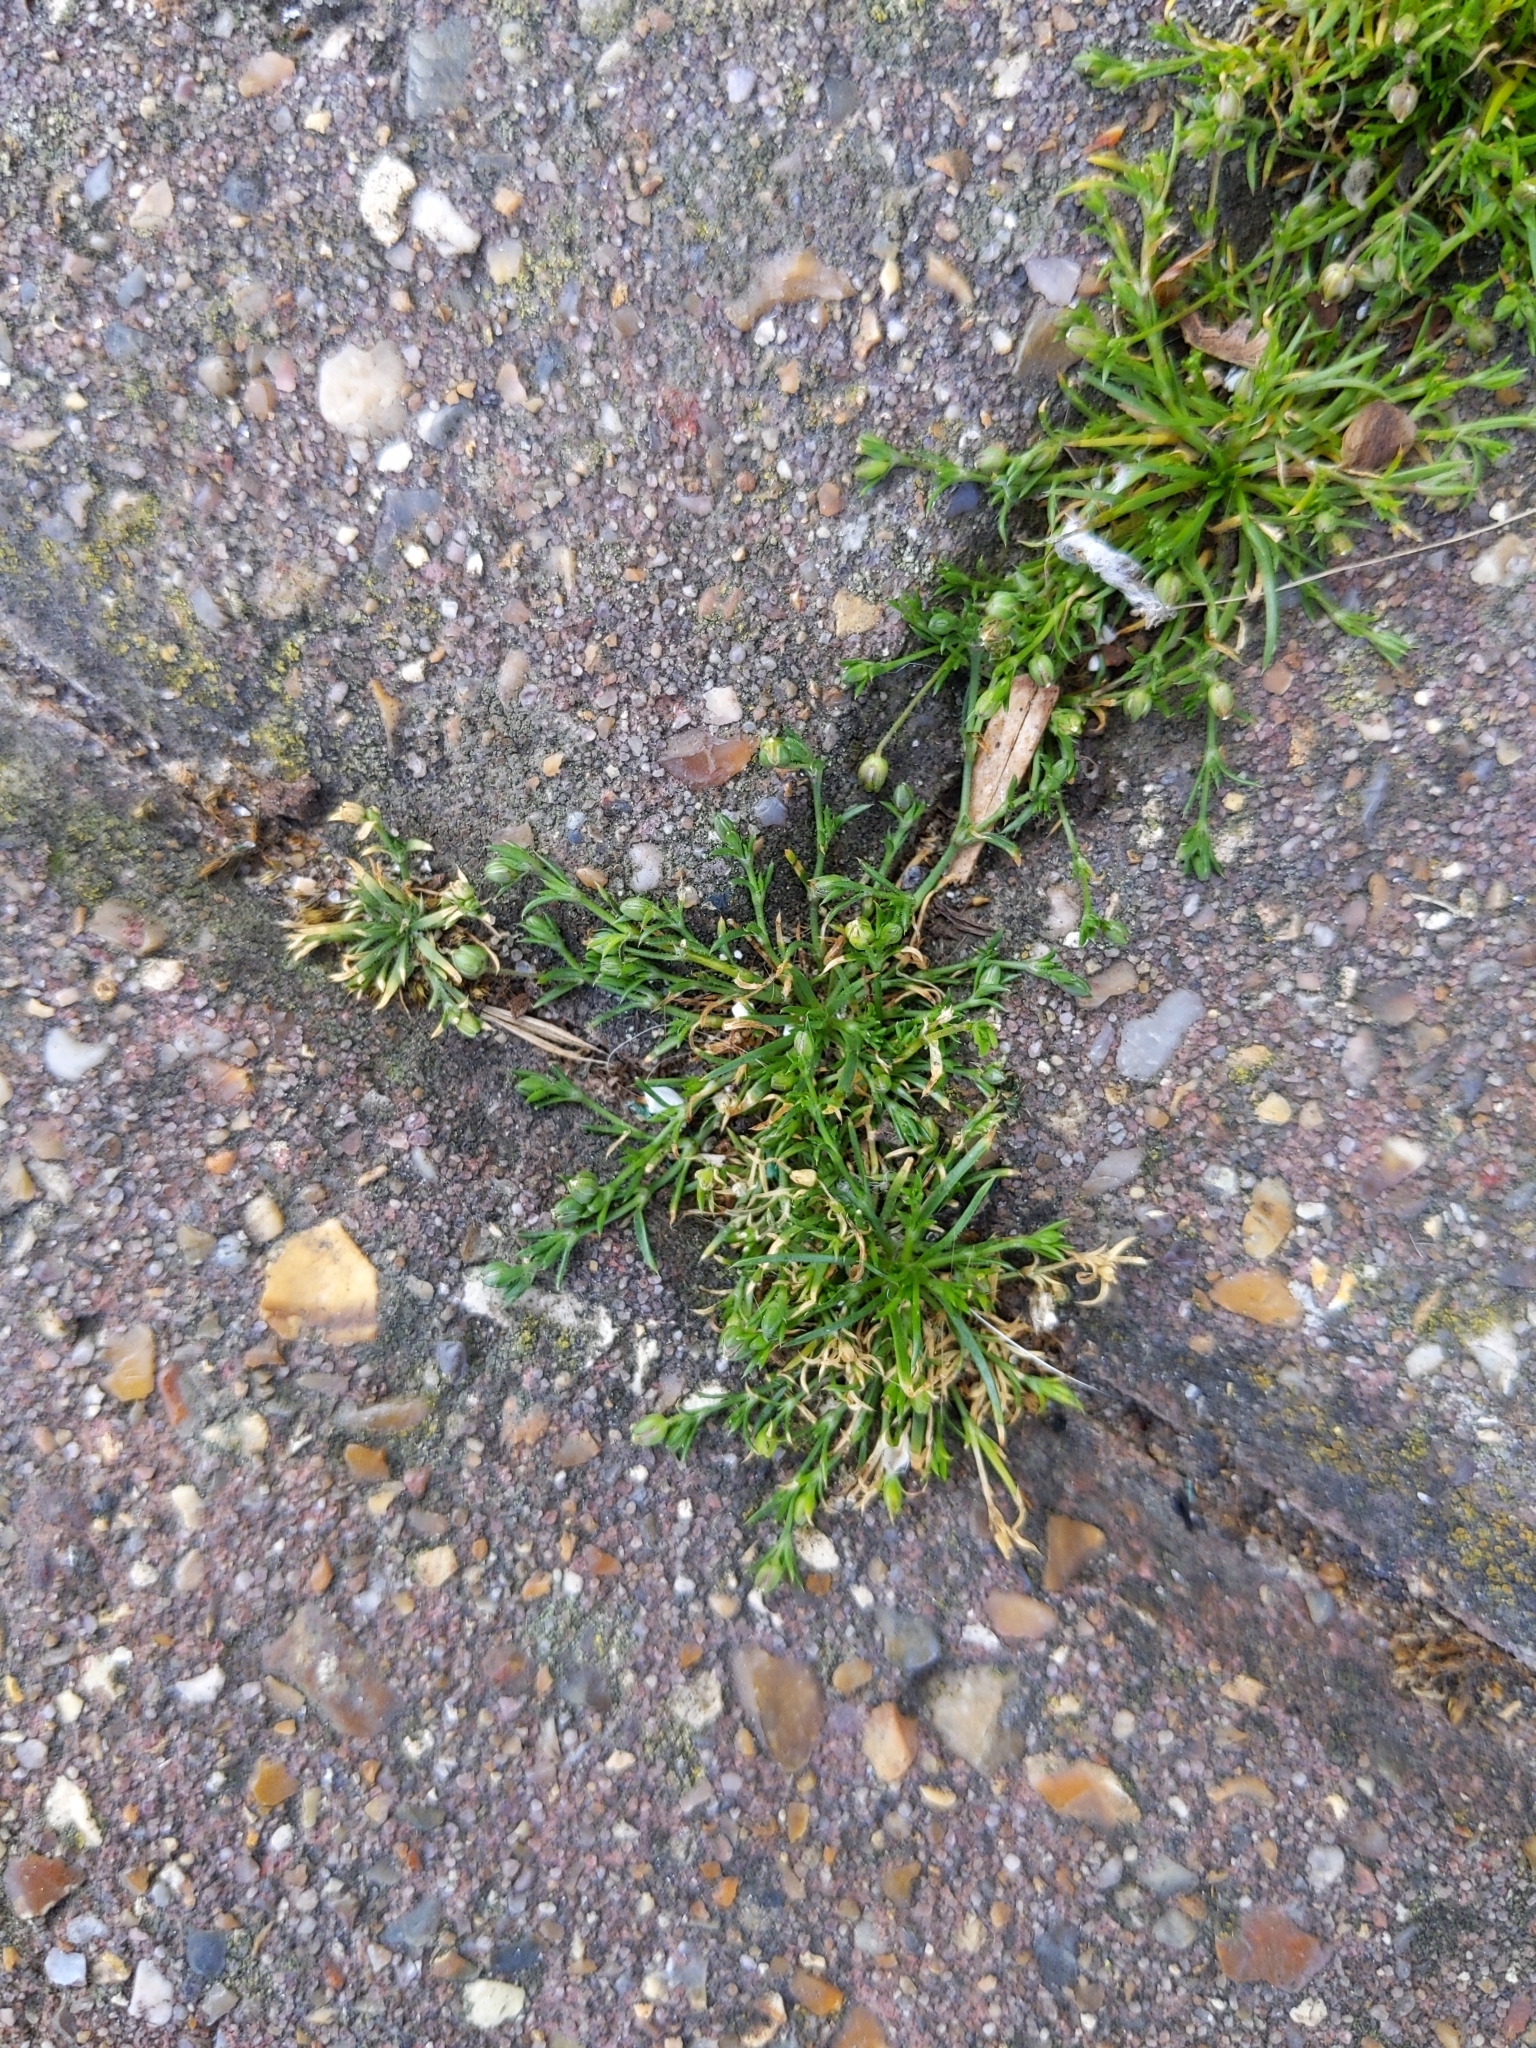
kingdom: Plantae
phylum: Tracheophyta
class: Magnoliopsida
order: Caryophyllales
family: Caryophyllaceae
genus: Sagina
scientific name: Sagina procumbens
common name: Procumbent pearlwort
